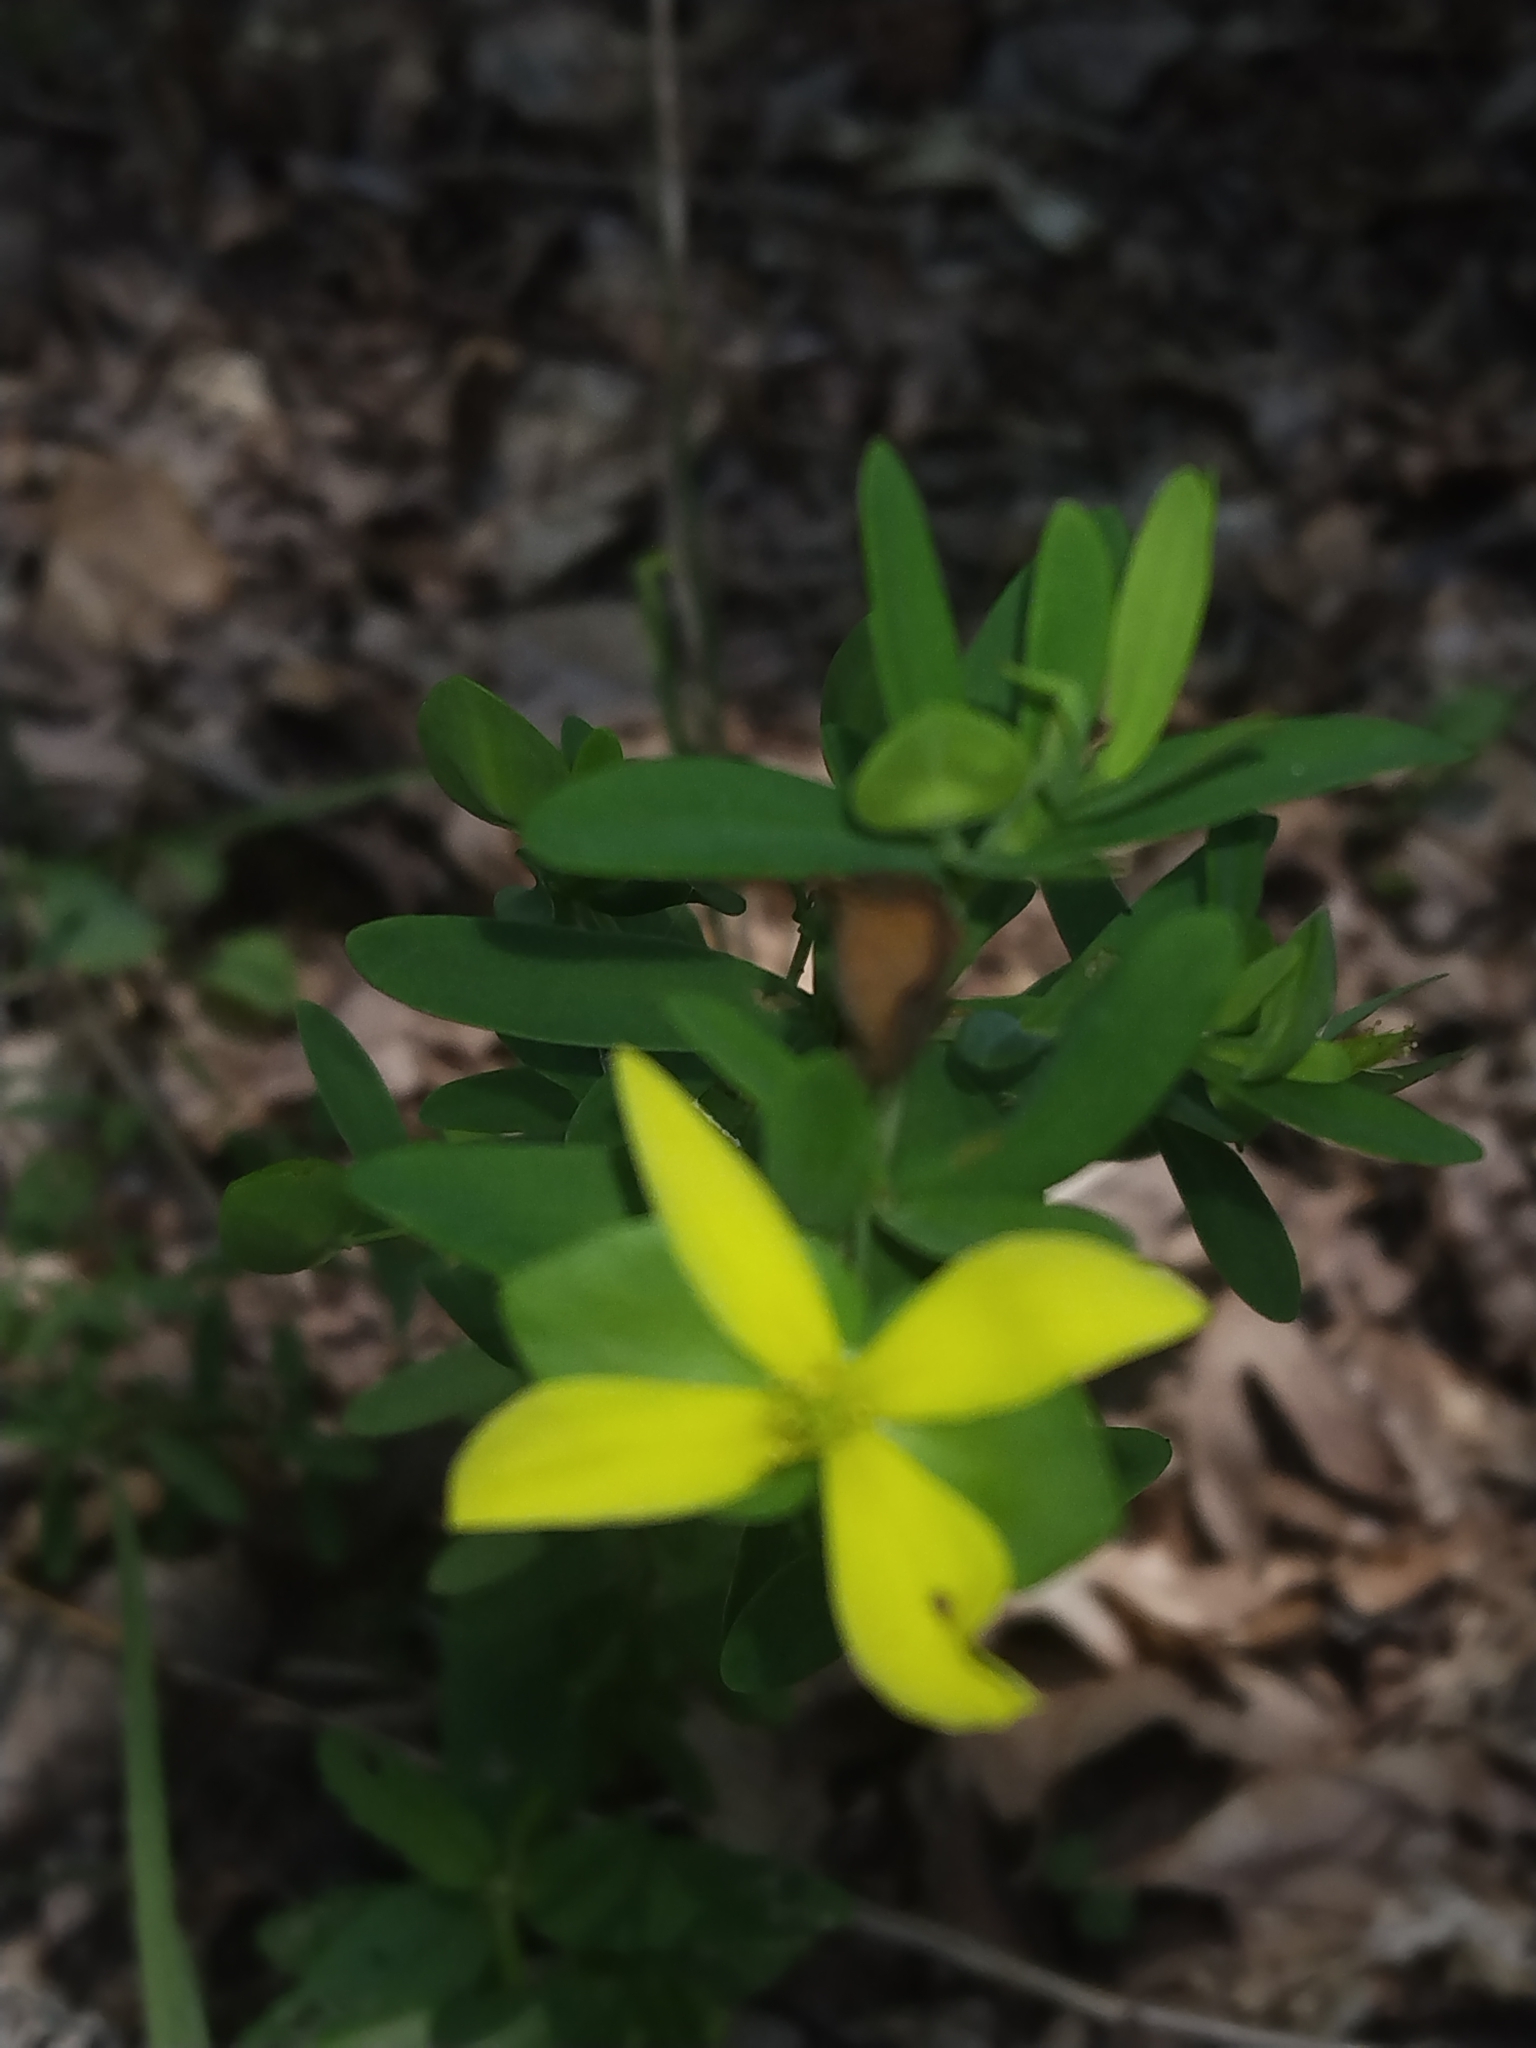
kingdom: Plantae
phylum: Tracheophyta
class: Magnoliopsida
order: Malpighiales
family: Hypericaceae
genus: Hypericum
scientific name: Hypericum hypericoides
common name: St. andrew's cross
